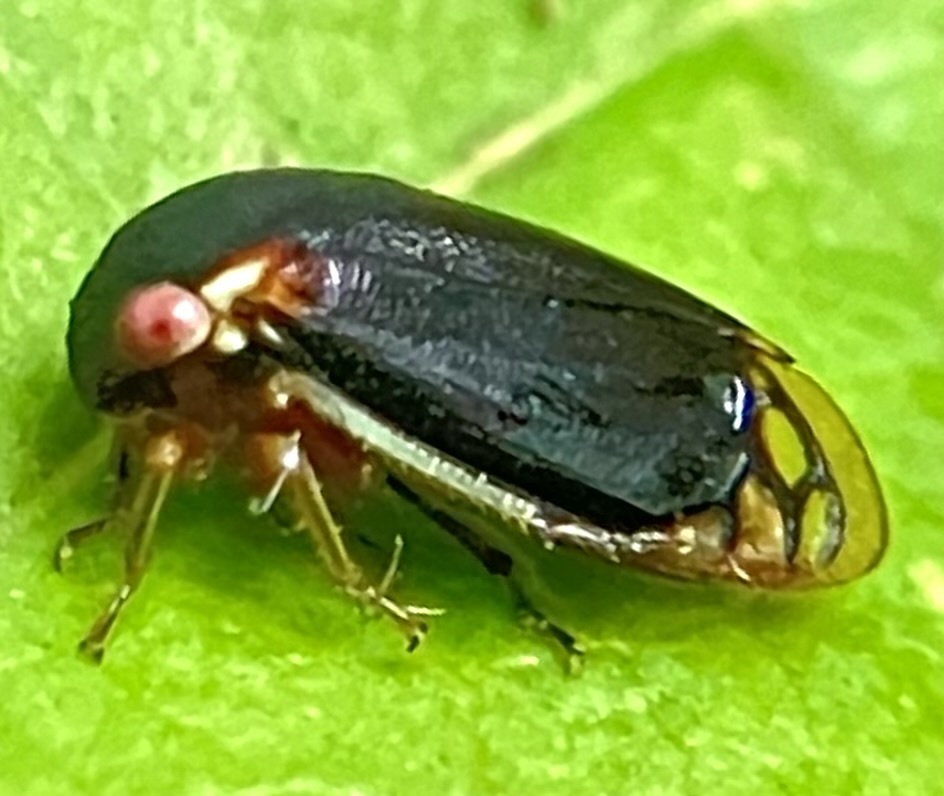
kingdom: Animalia
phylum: Arthropoda
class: Insecta
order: Hemiptera
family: Membracidae
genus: Acutalis
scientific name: Acutalis tartarea
